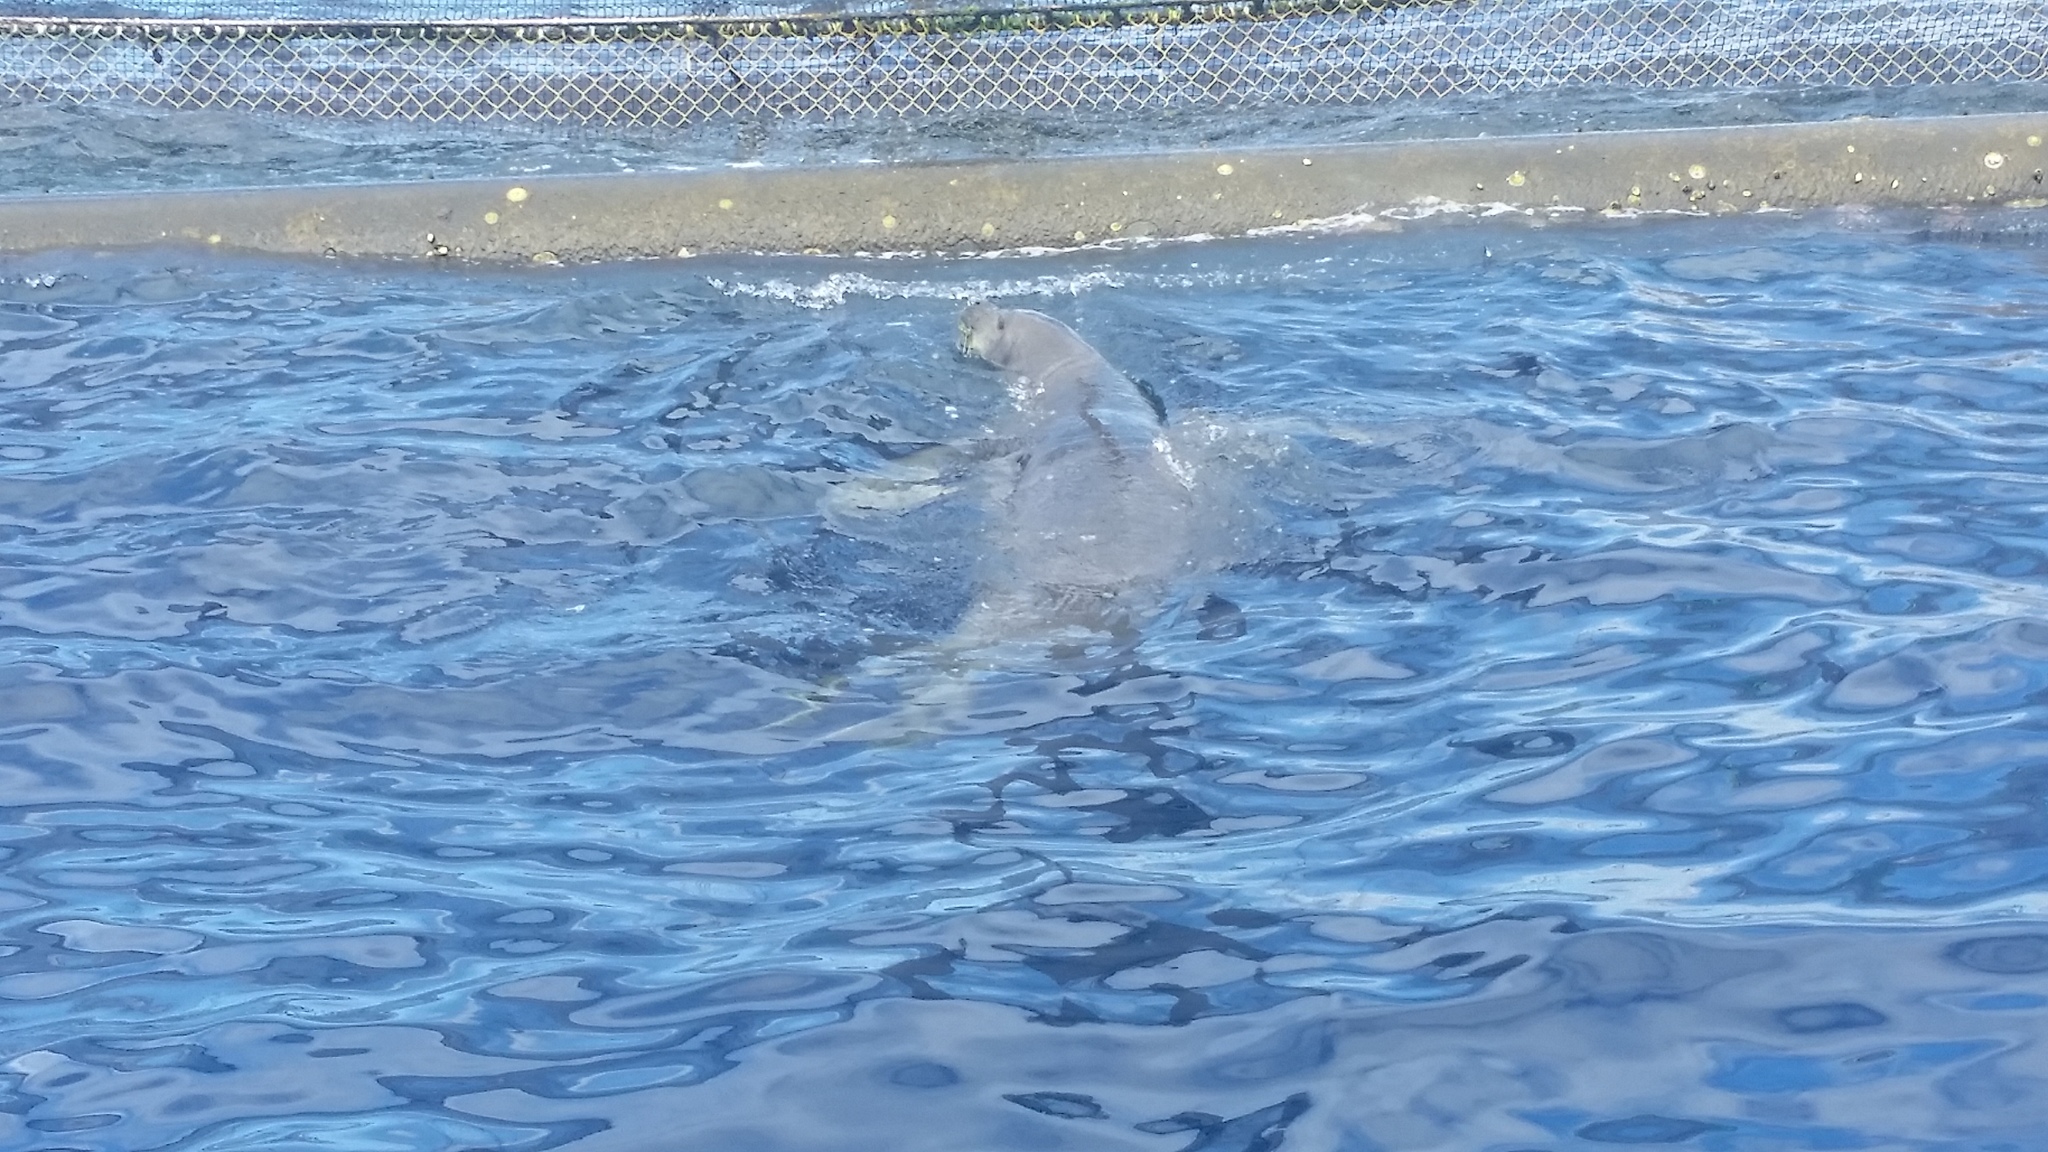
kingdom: Animalia
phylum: Chordata
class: Mammalia
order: Carnivora
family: Phocidae
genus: Neomonachus
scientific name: Neomonachus schauinslandi
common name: Hawaiian monk seal
